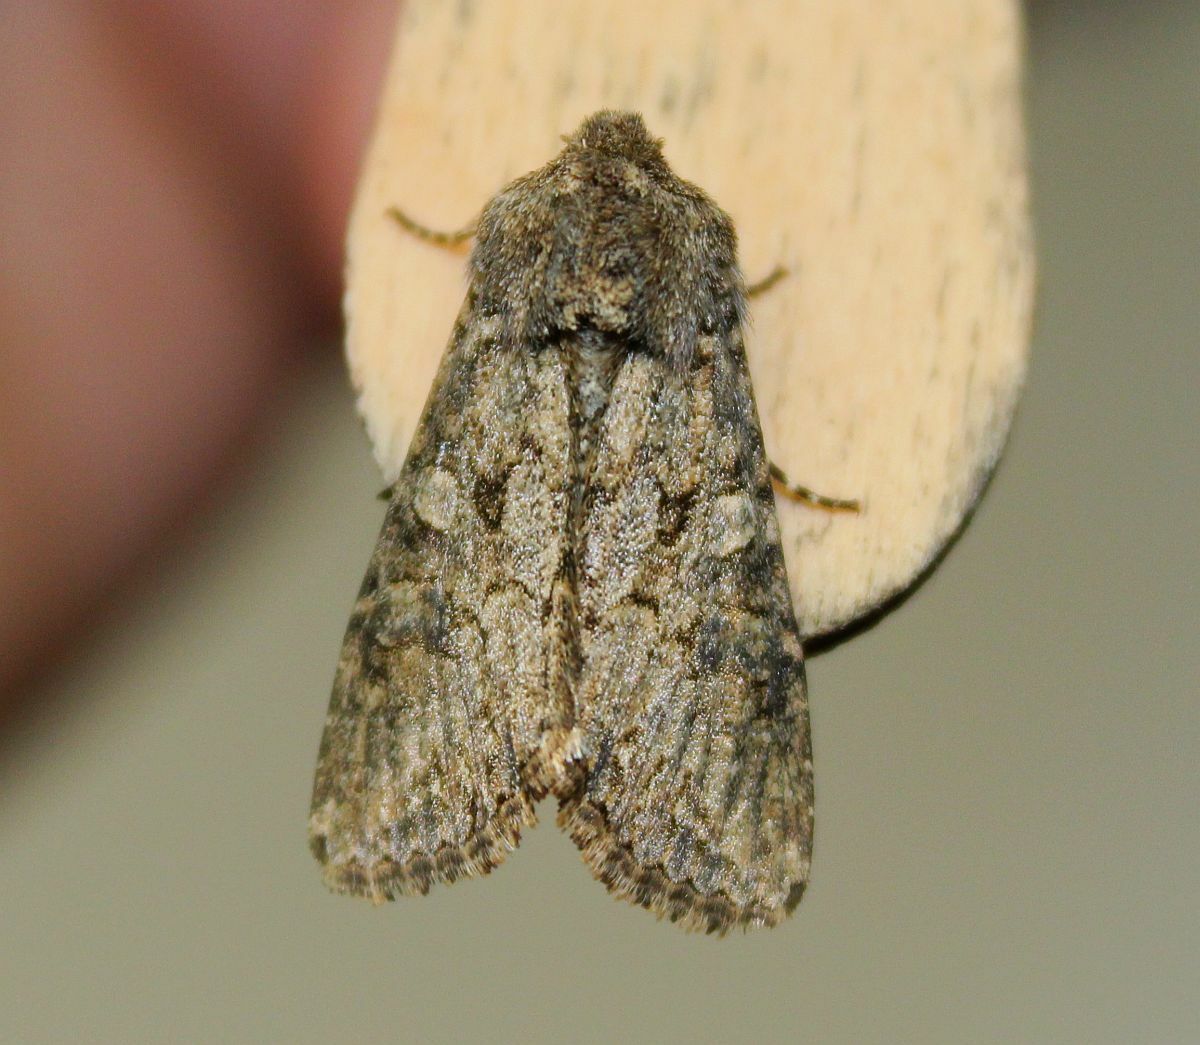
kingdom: Animalia
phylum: Arthropoda
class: Insecta
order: Lepidoptera
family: Noctuidae
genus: Anarta
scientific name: Anarta trifolii
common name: Clover cutworm moth
